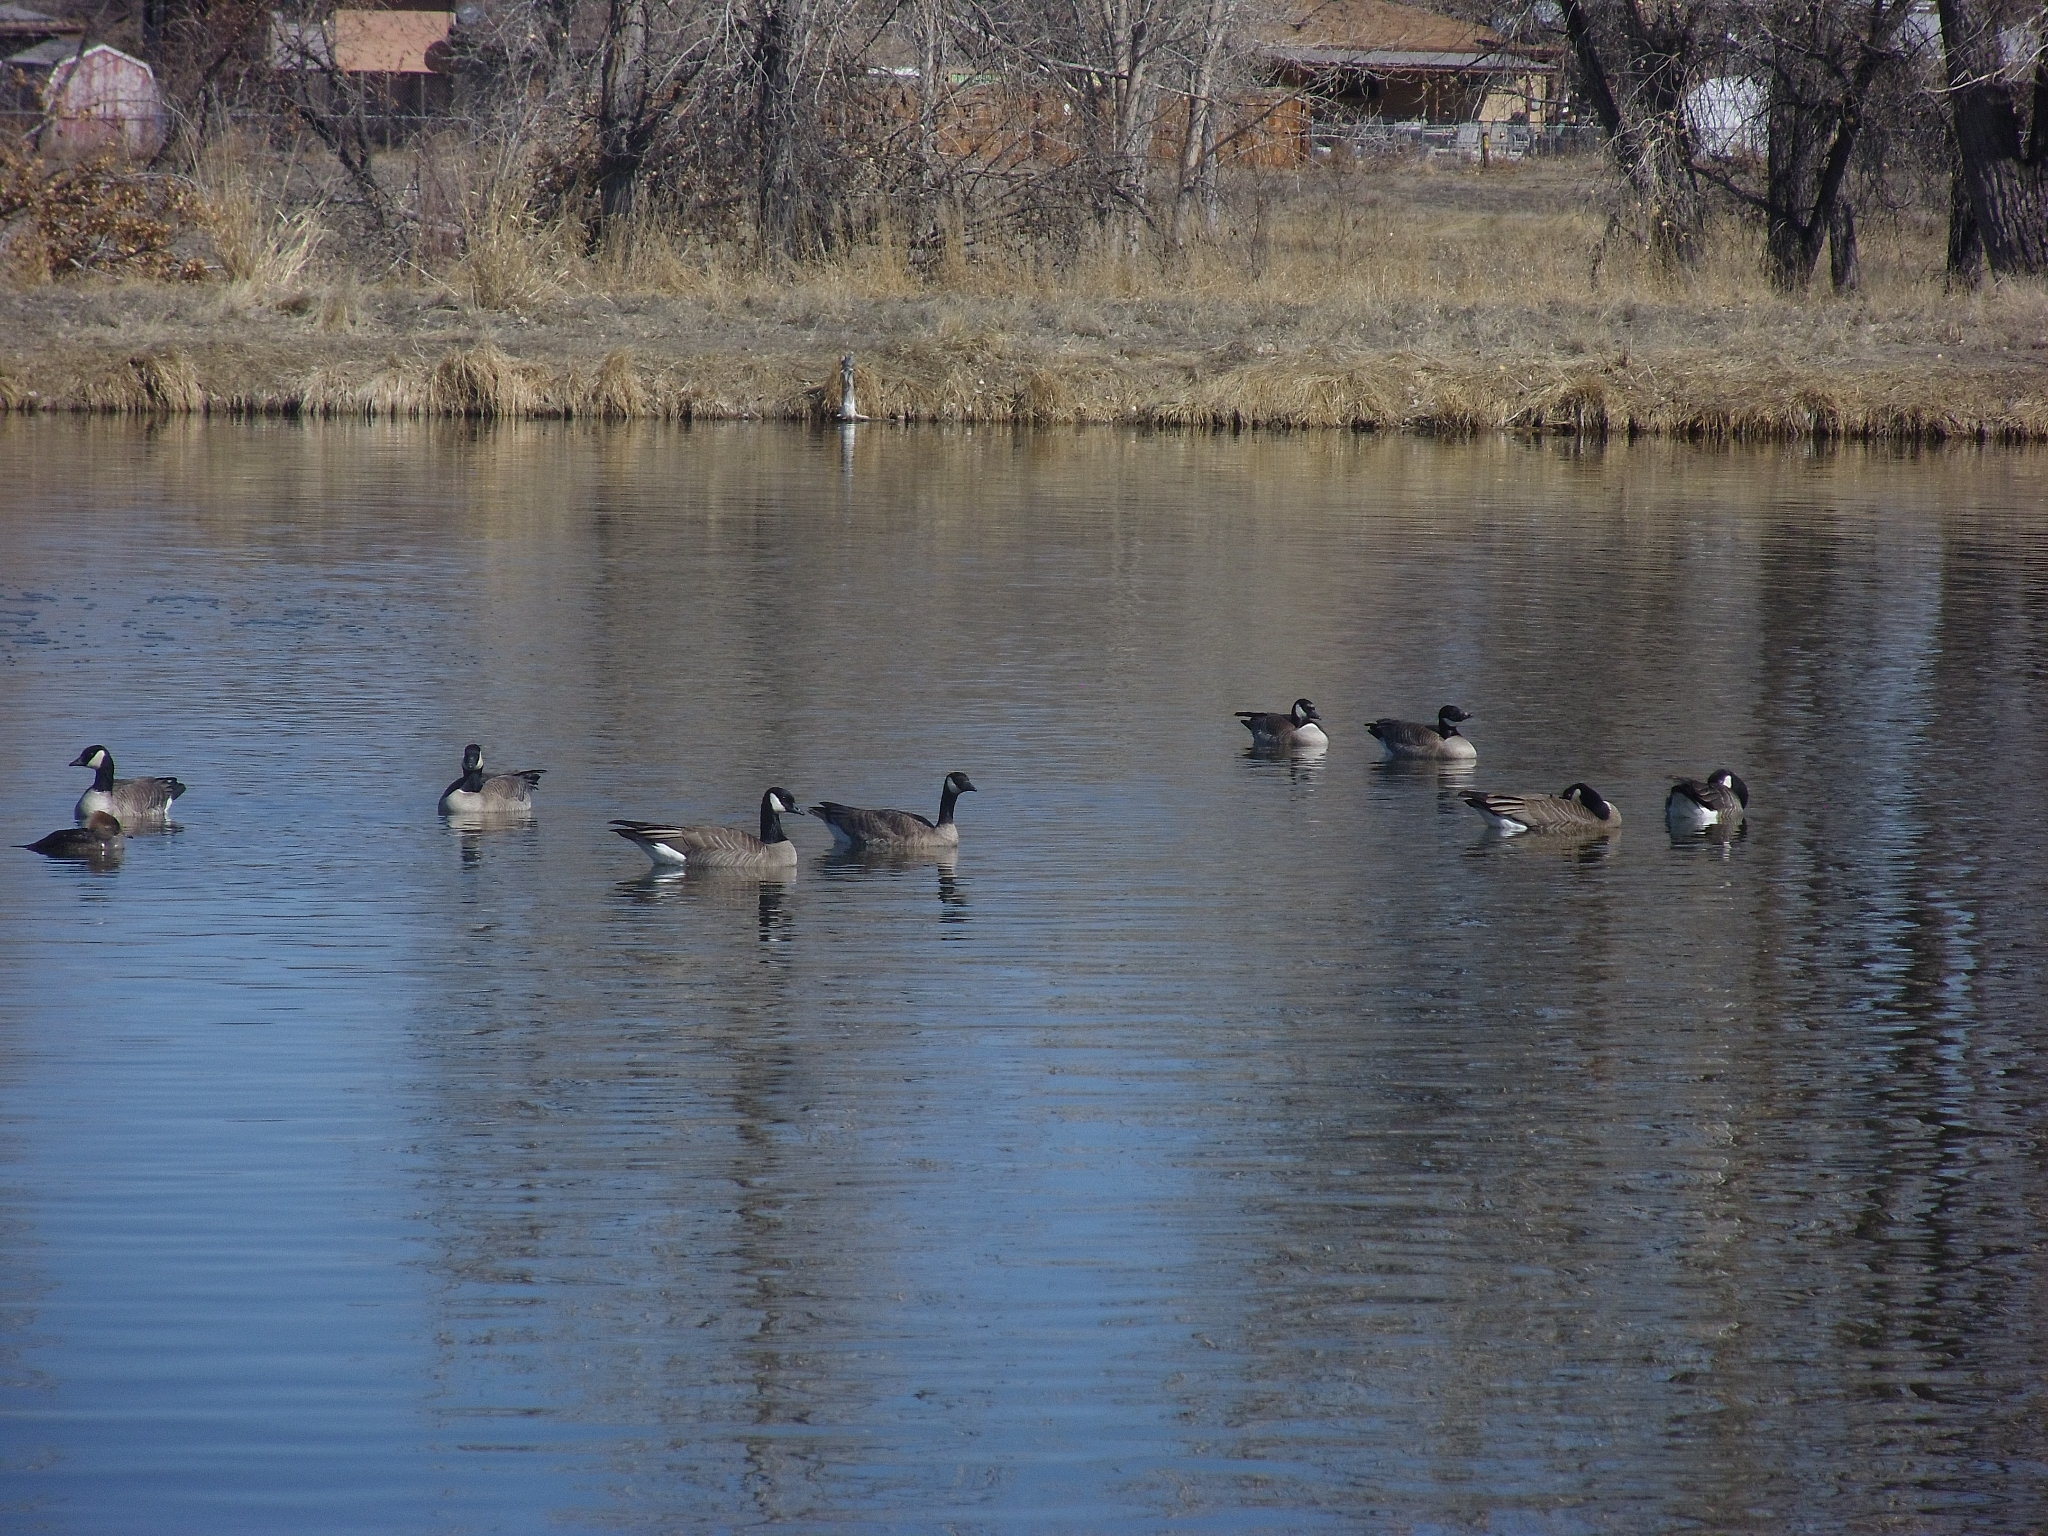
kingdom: Animalia
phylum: Chordata
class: Aves
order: Anseriformes
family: Anatidae
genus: Branta
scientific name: Branta canadensis
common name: Canada goose
